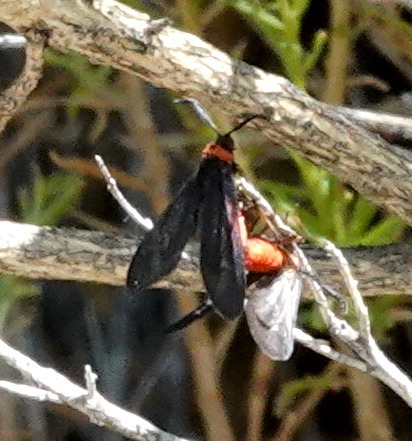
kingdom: Animalia
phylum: Arthropoda
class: Insecta
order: Lepidoptera
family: Zygaenidae
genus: Harrisina
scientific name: Harrisina metallica
